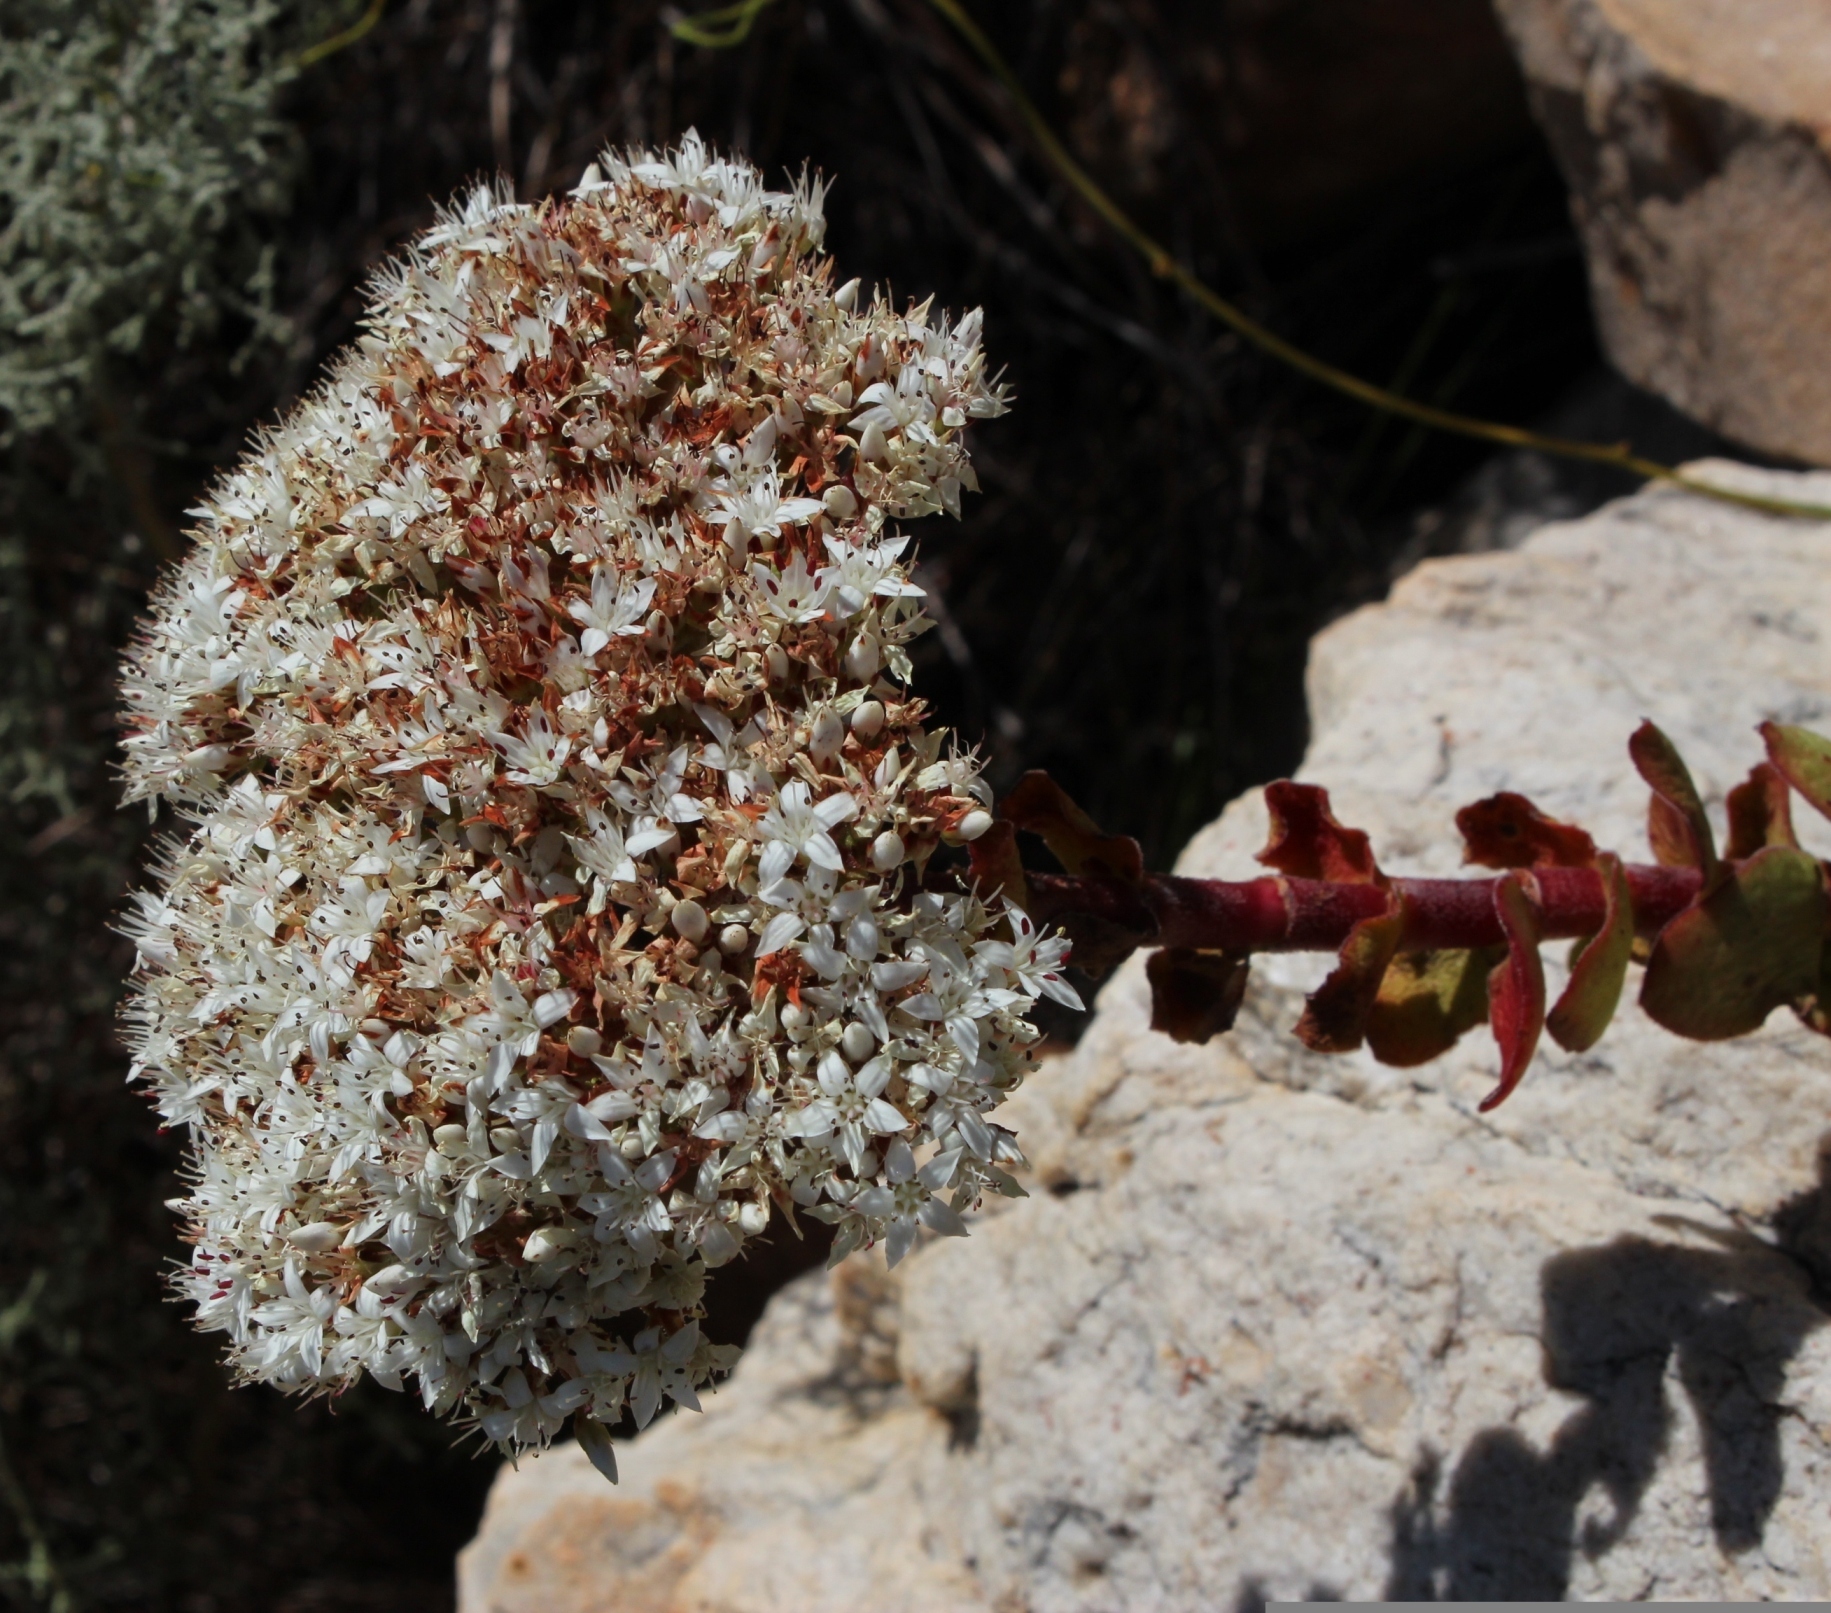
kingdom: Plantae
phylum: Tracheophyta
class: Magnoliopsida
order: Saxifragales
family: Crassulaceae
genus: Crassula
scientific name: Crassula undulata
